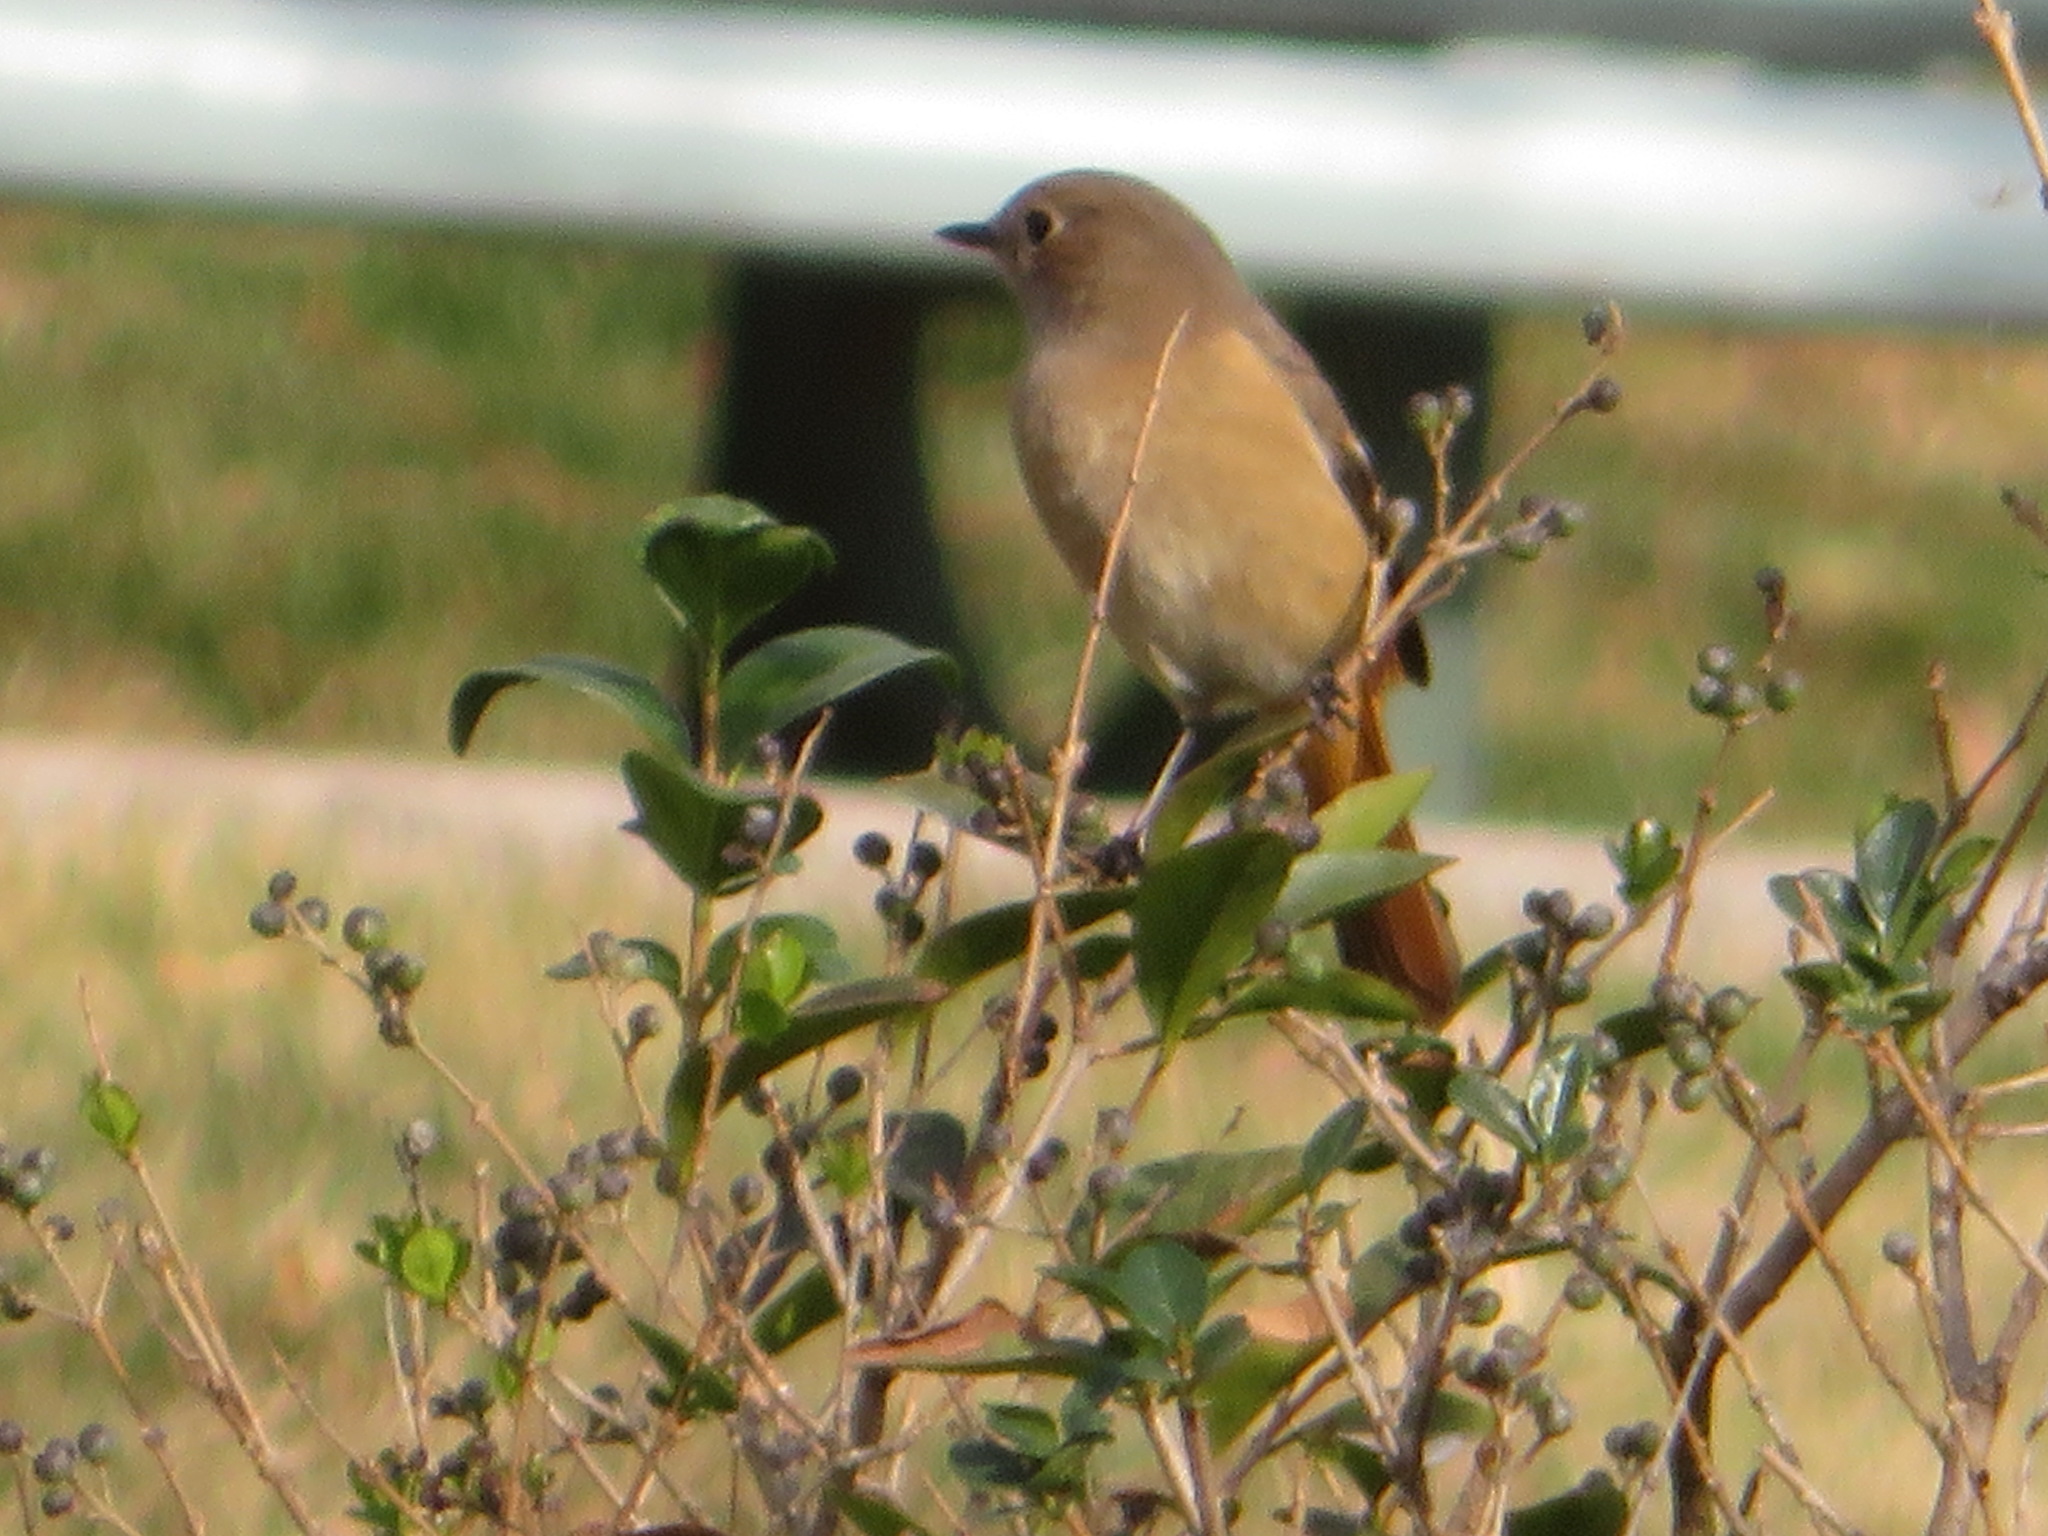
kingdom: Animalia
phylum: Chordata
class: Aves
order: Passeriformes
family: Muscicapidae
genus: Phoenicurus
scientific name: Phoenicurus auroreus
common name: Daurian redstart
